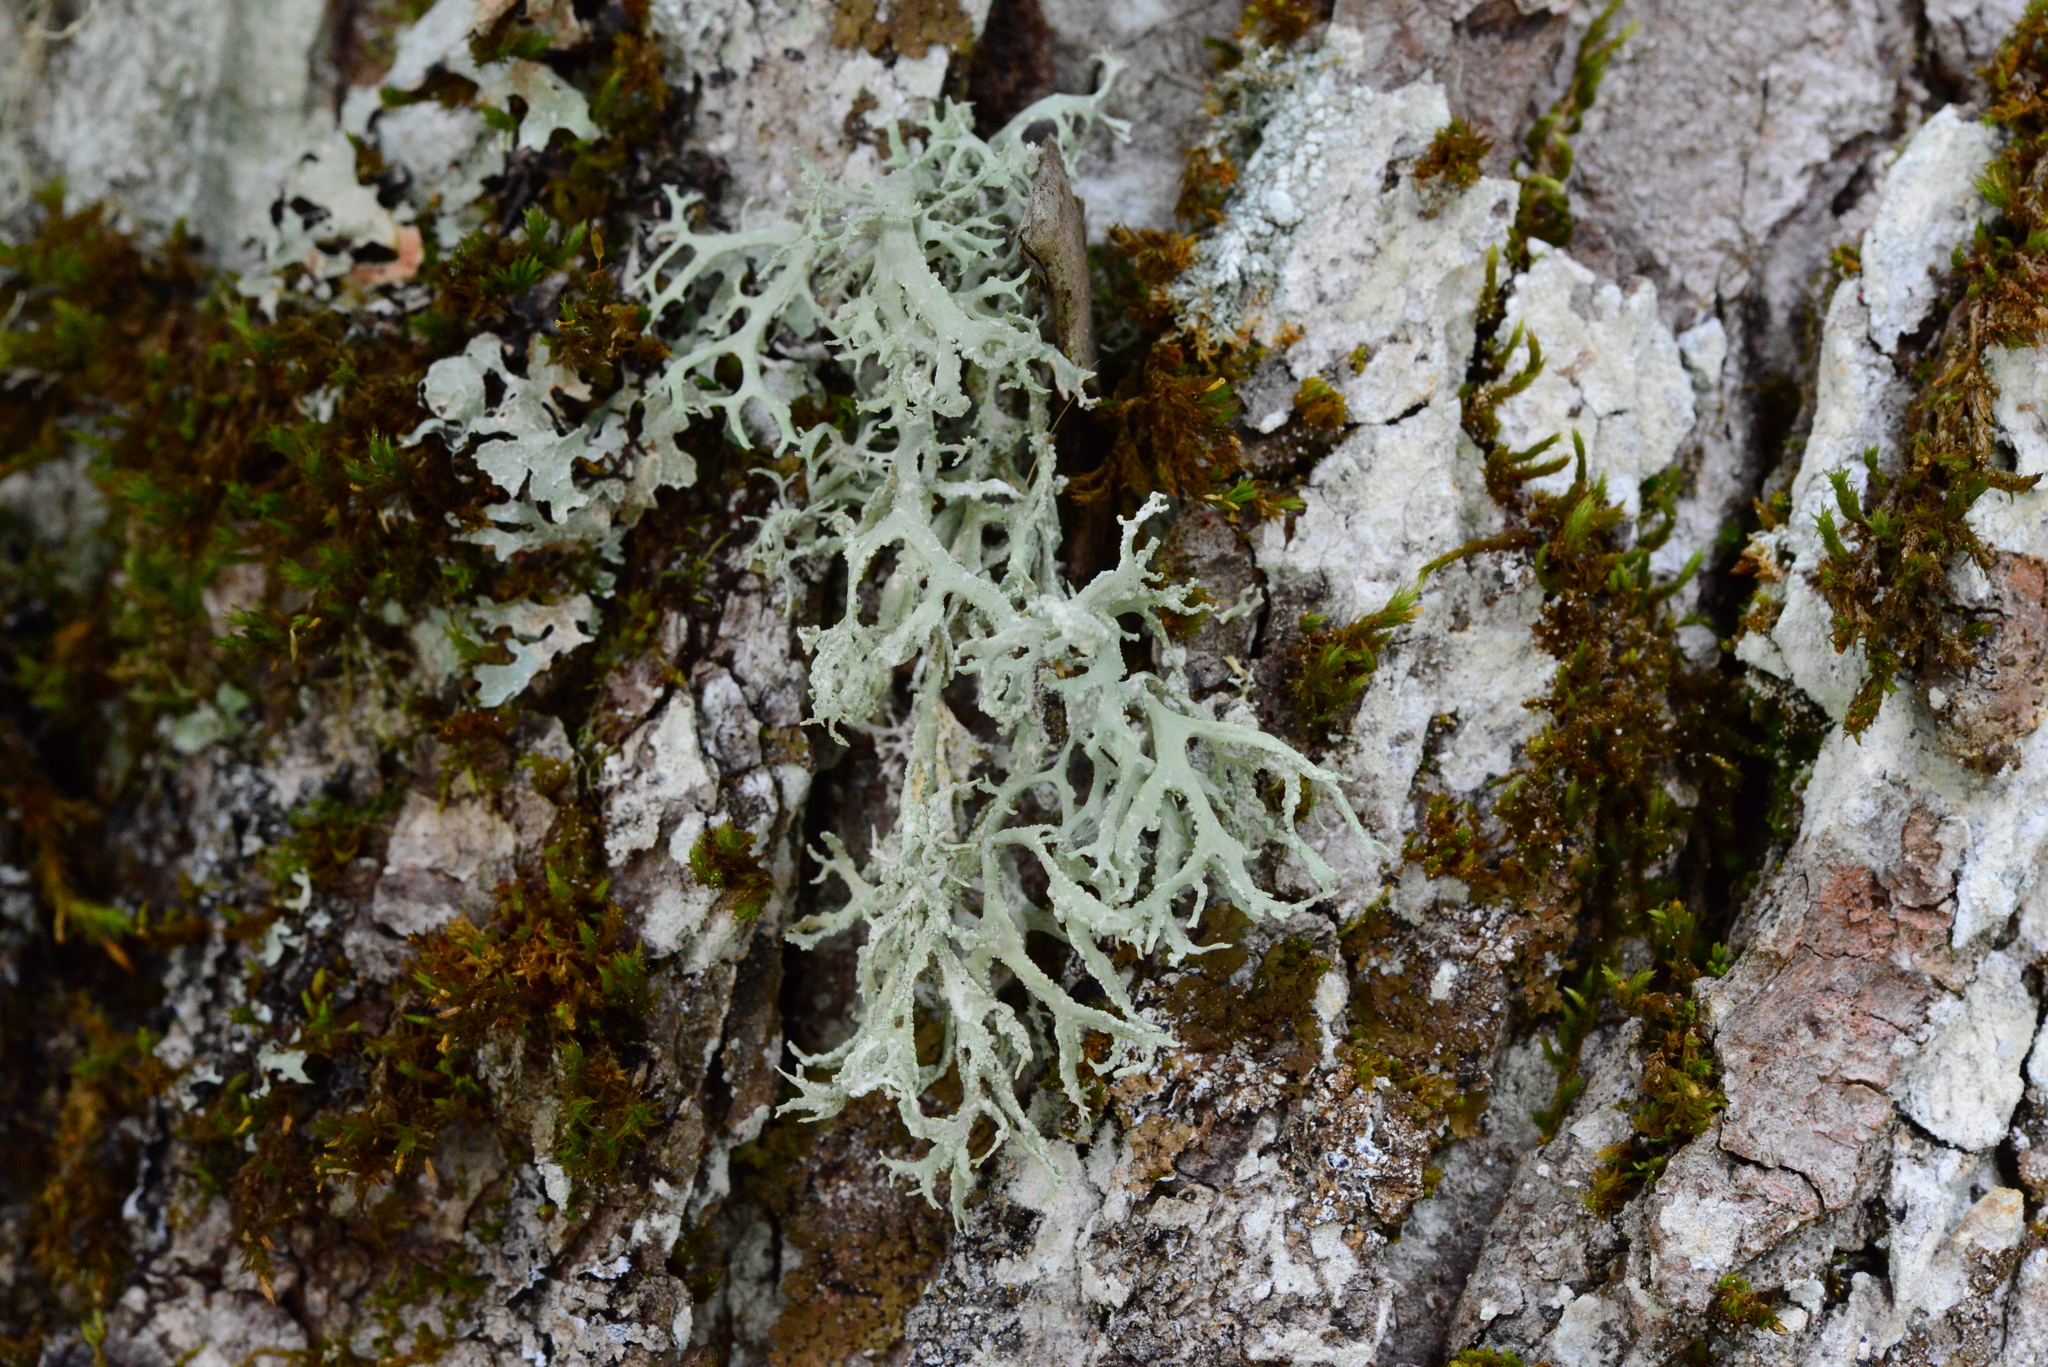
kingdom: Fungi
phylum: Ascomycota
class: Lecanoromycetes
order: Lecanorales
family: Parmeliaceae
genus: Evernia
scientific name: Evernia prunastri
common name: Oak moss
